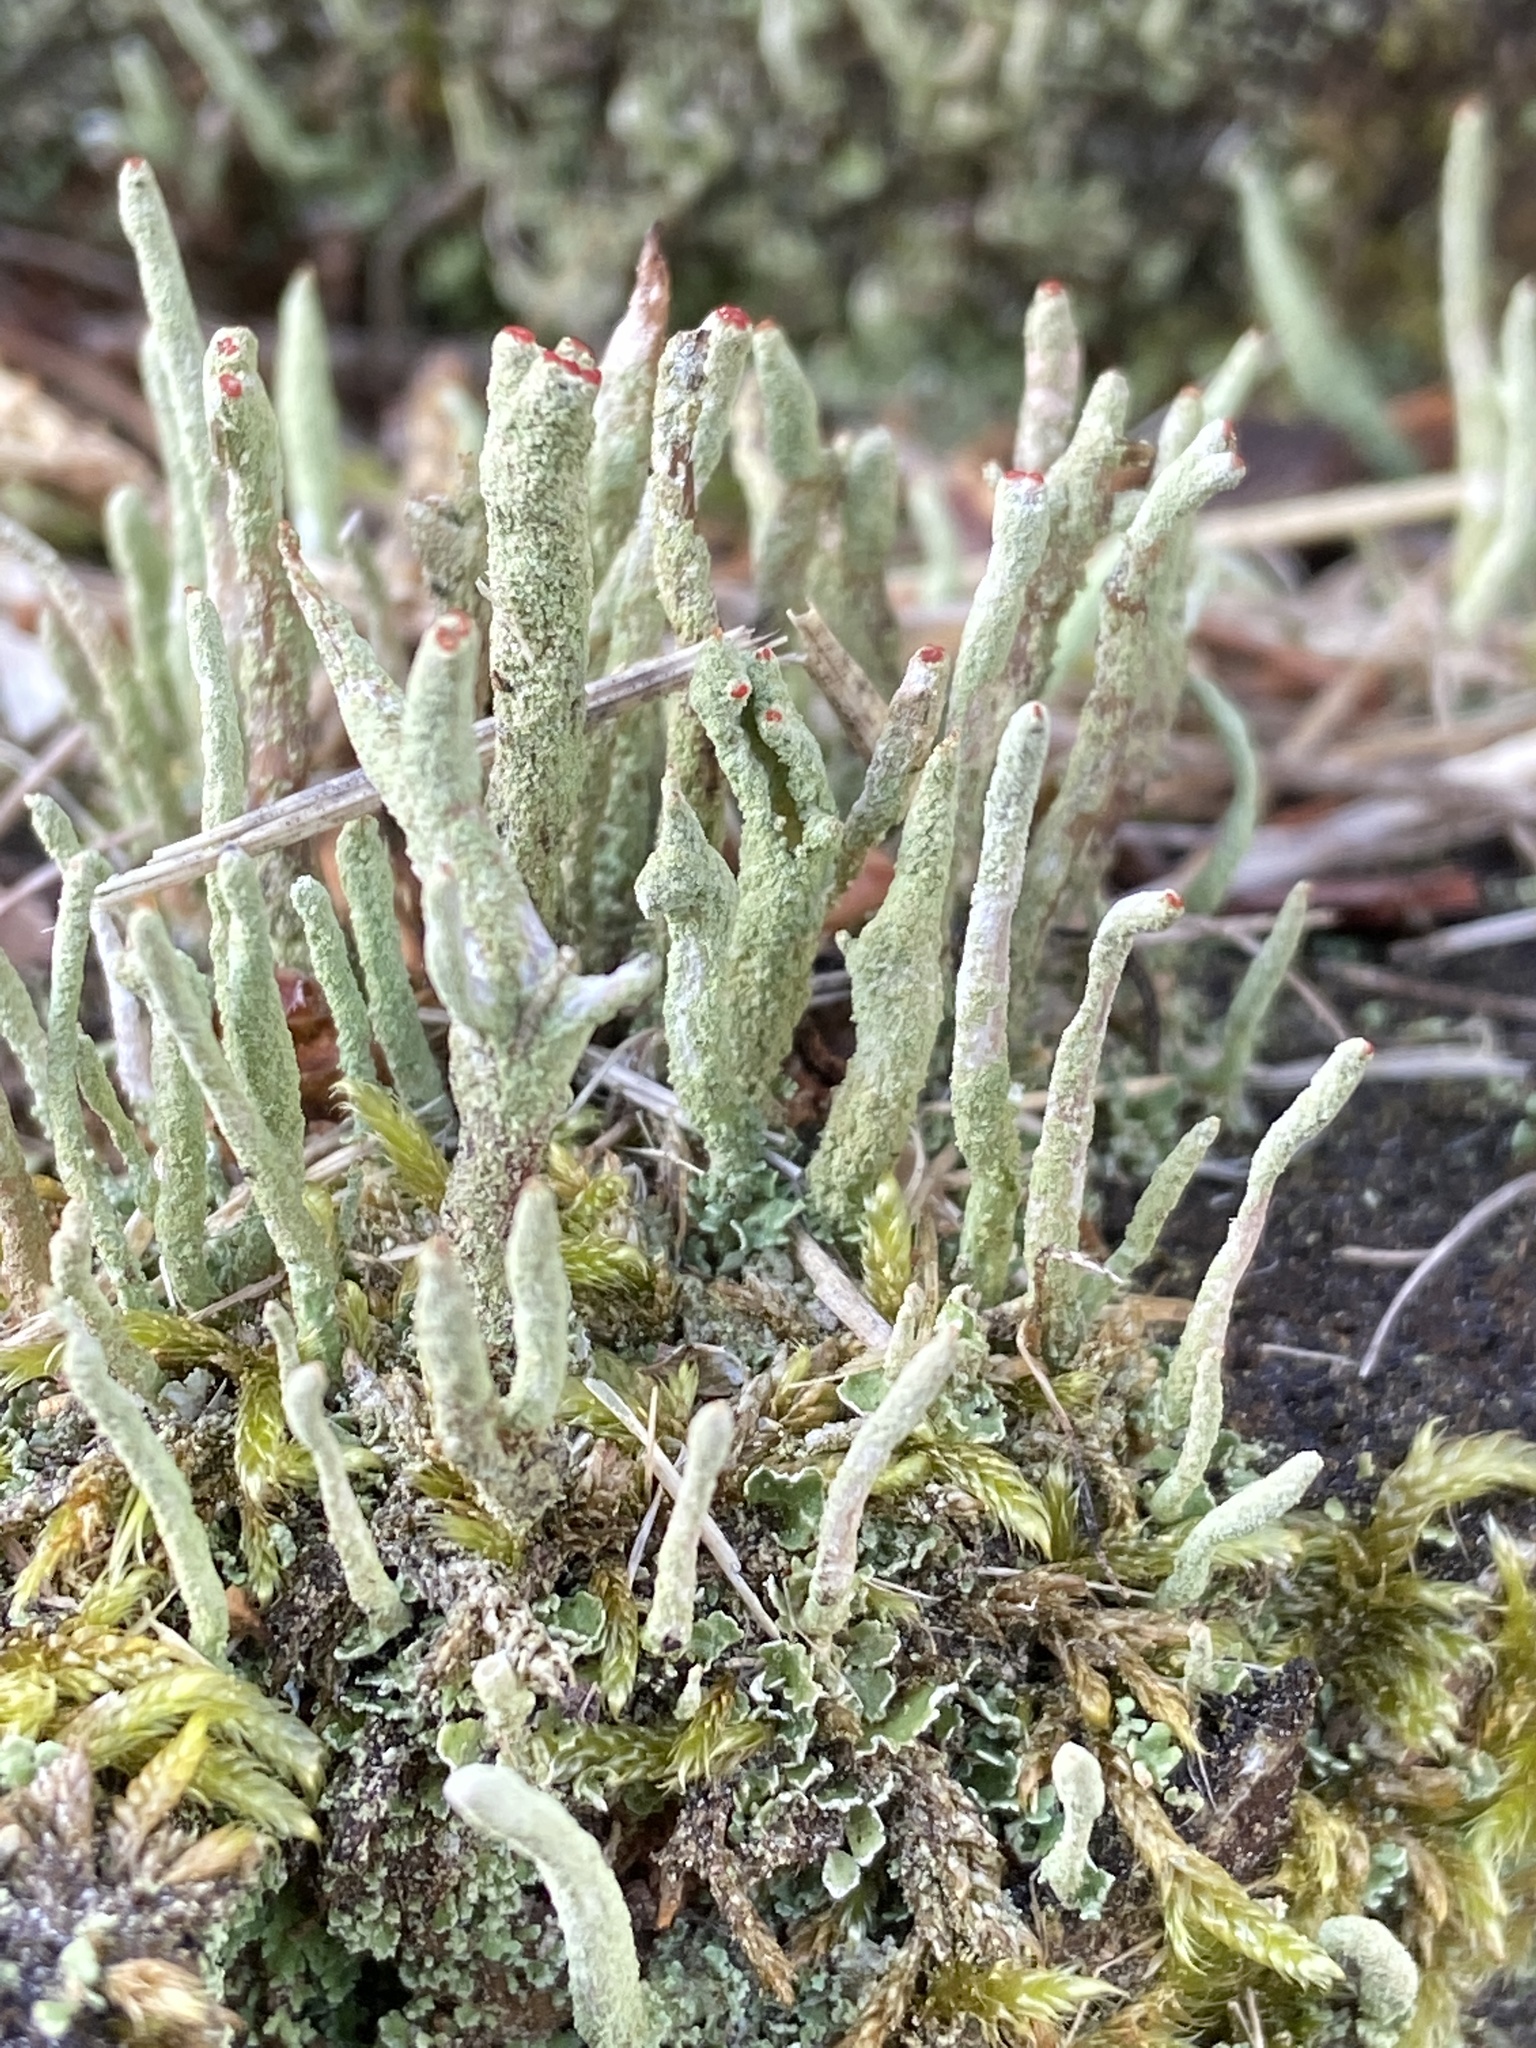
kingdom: Fungi
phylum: Ascomycota
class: Lecanoromycetes
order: Lecanorales
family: Cladoniaceae
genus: Cladonia
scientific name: Cladonia macilenta
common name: Lipstick powderhorn
